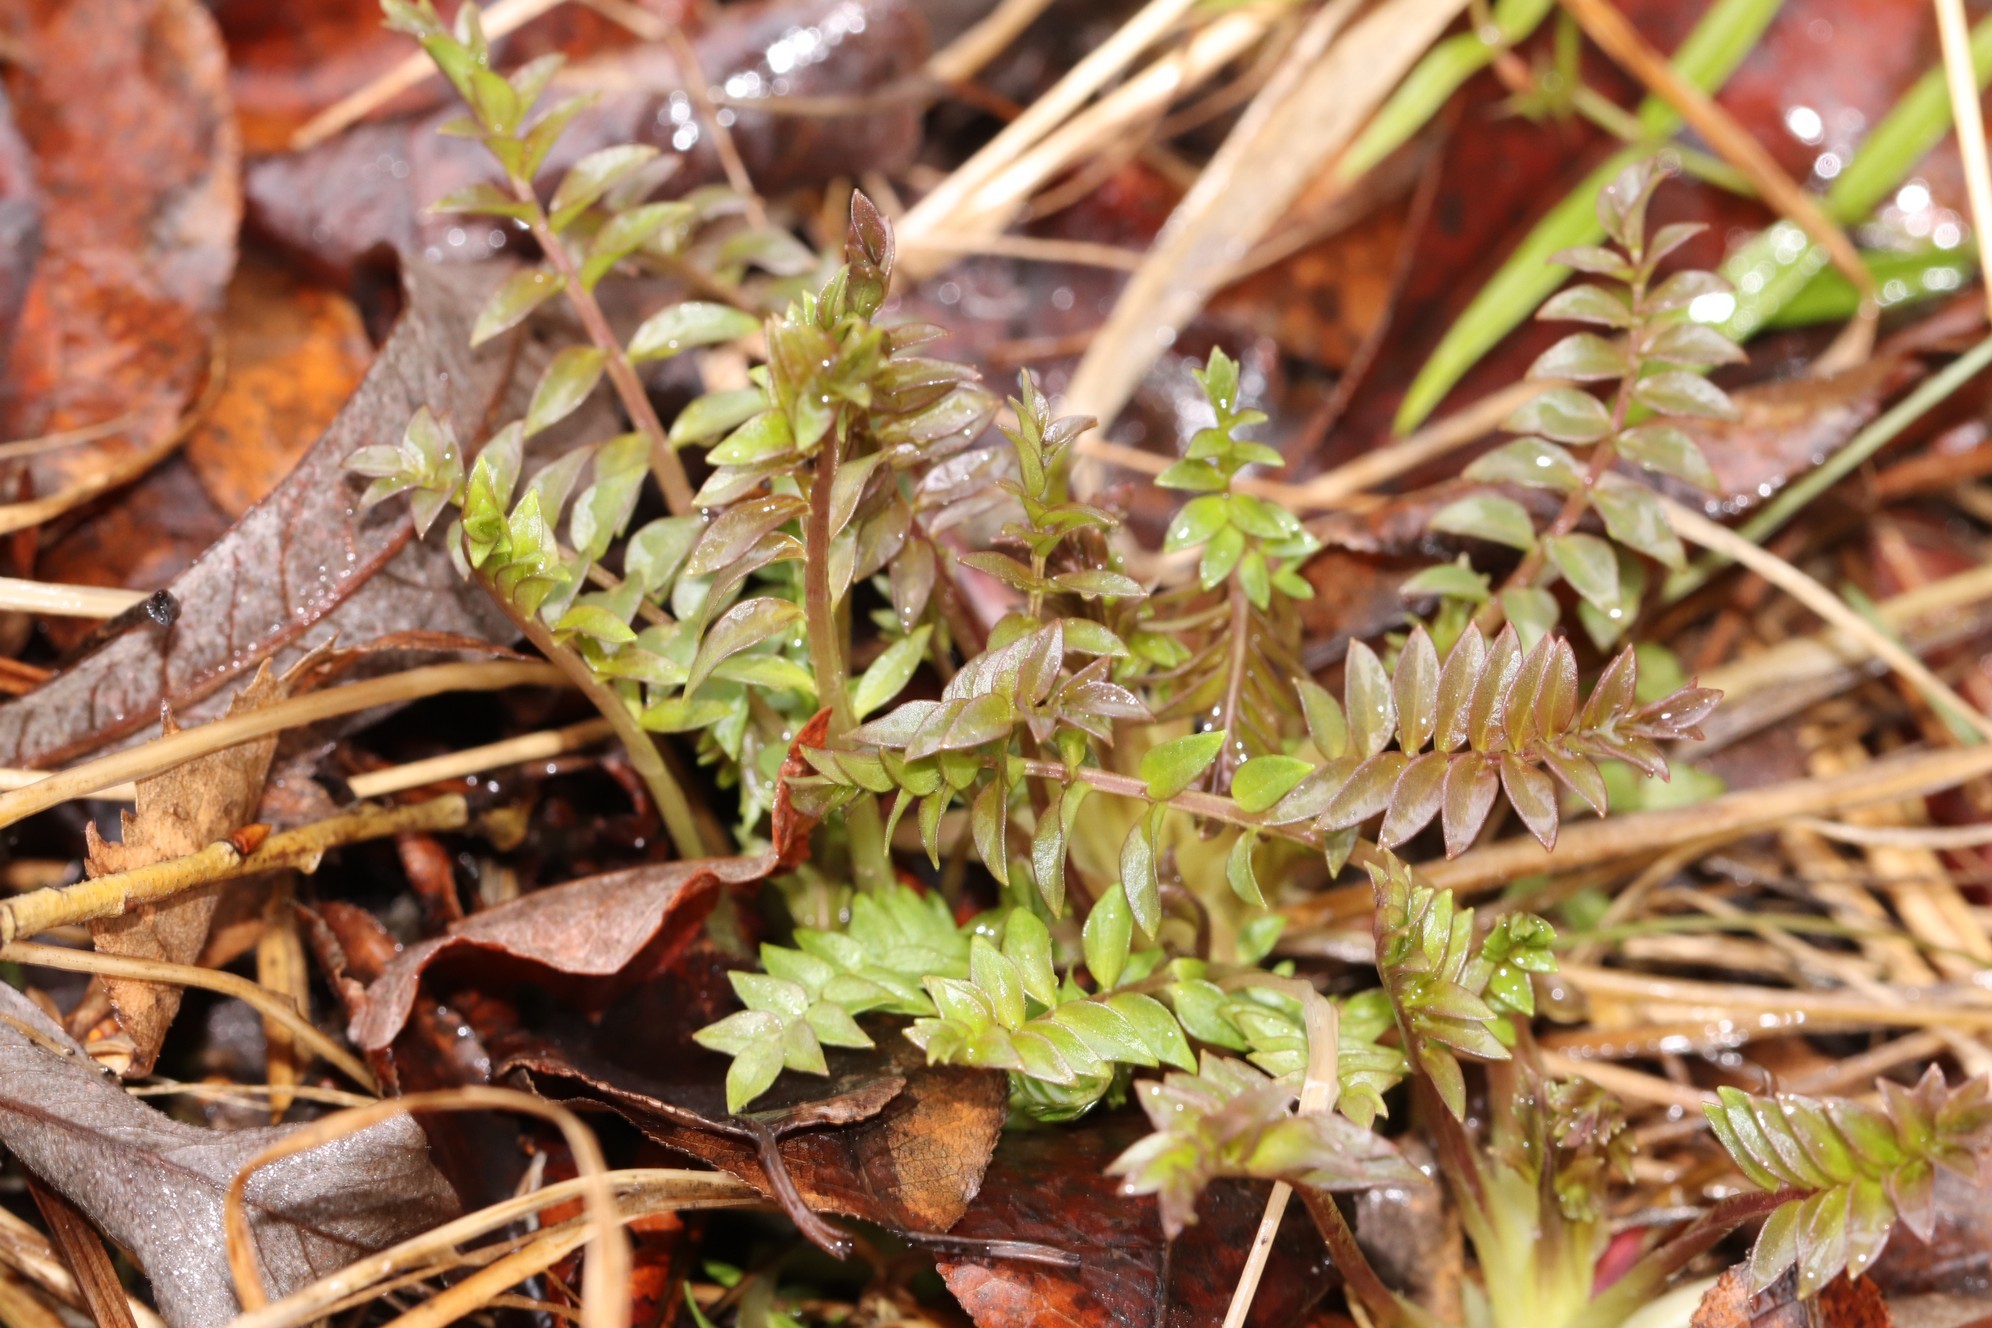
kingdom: Plantae
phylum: Tracheophyta
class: Magnoliopsida
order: Ericales
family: Polemoniaceae
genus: Polemonium
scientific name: Polemonium caeruleum
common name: Jacob's-ladder
